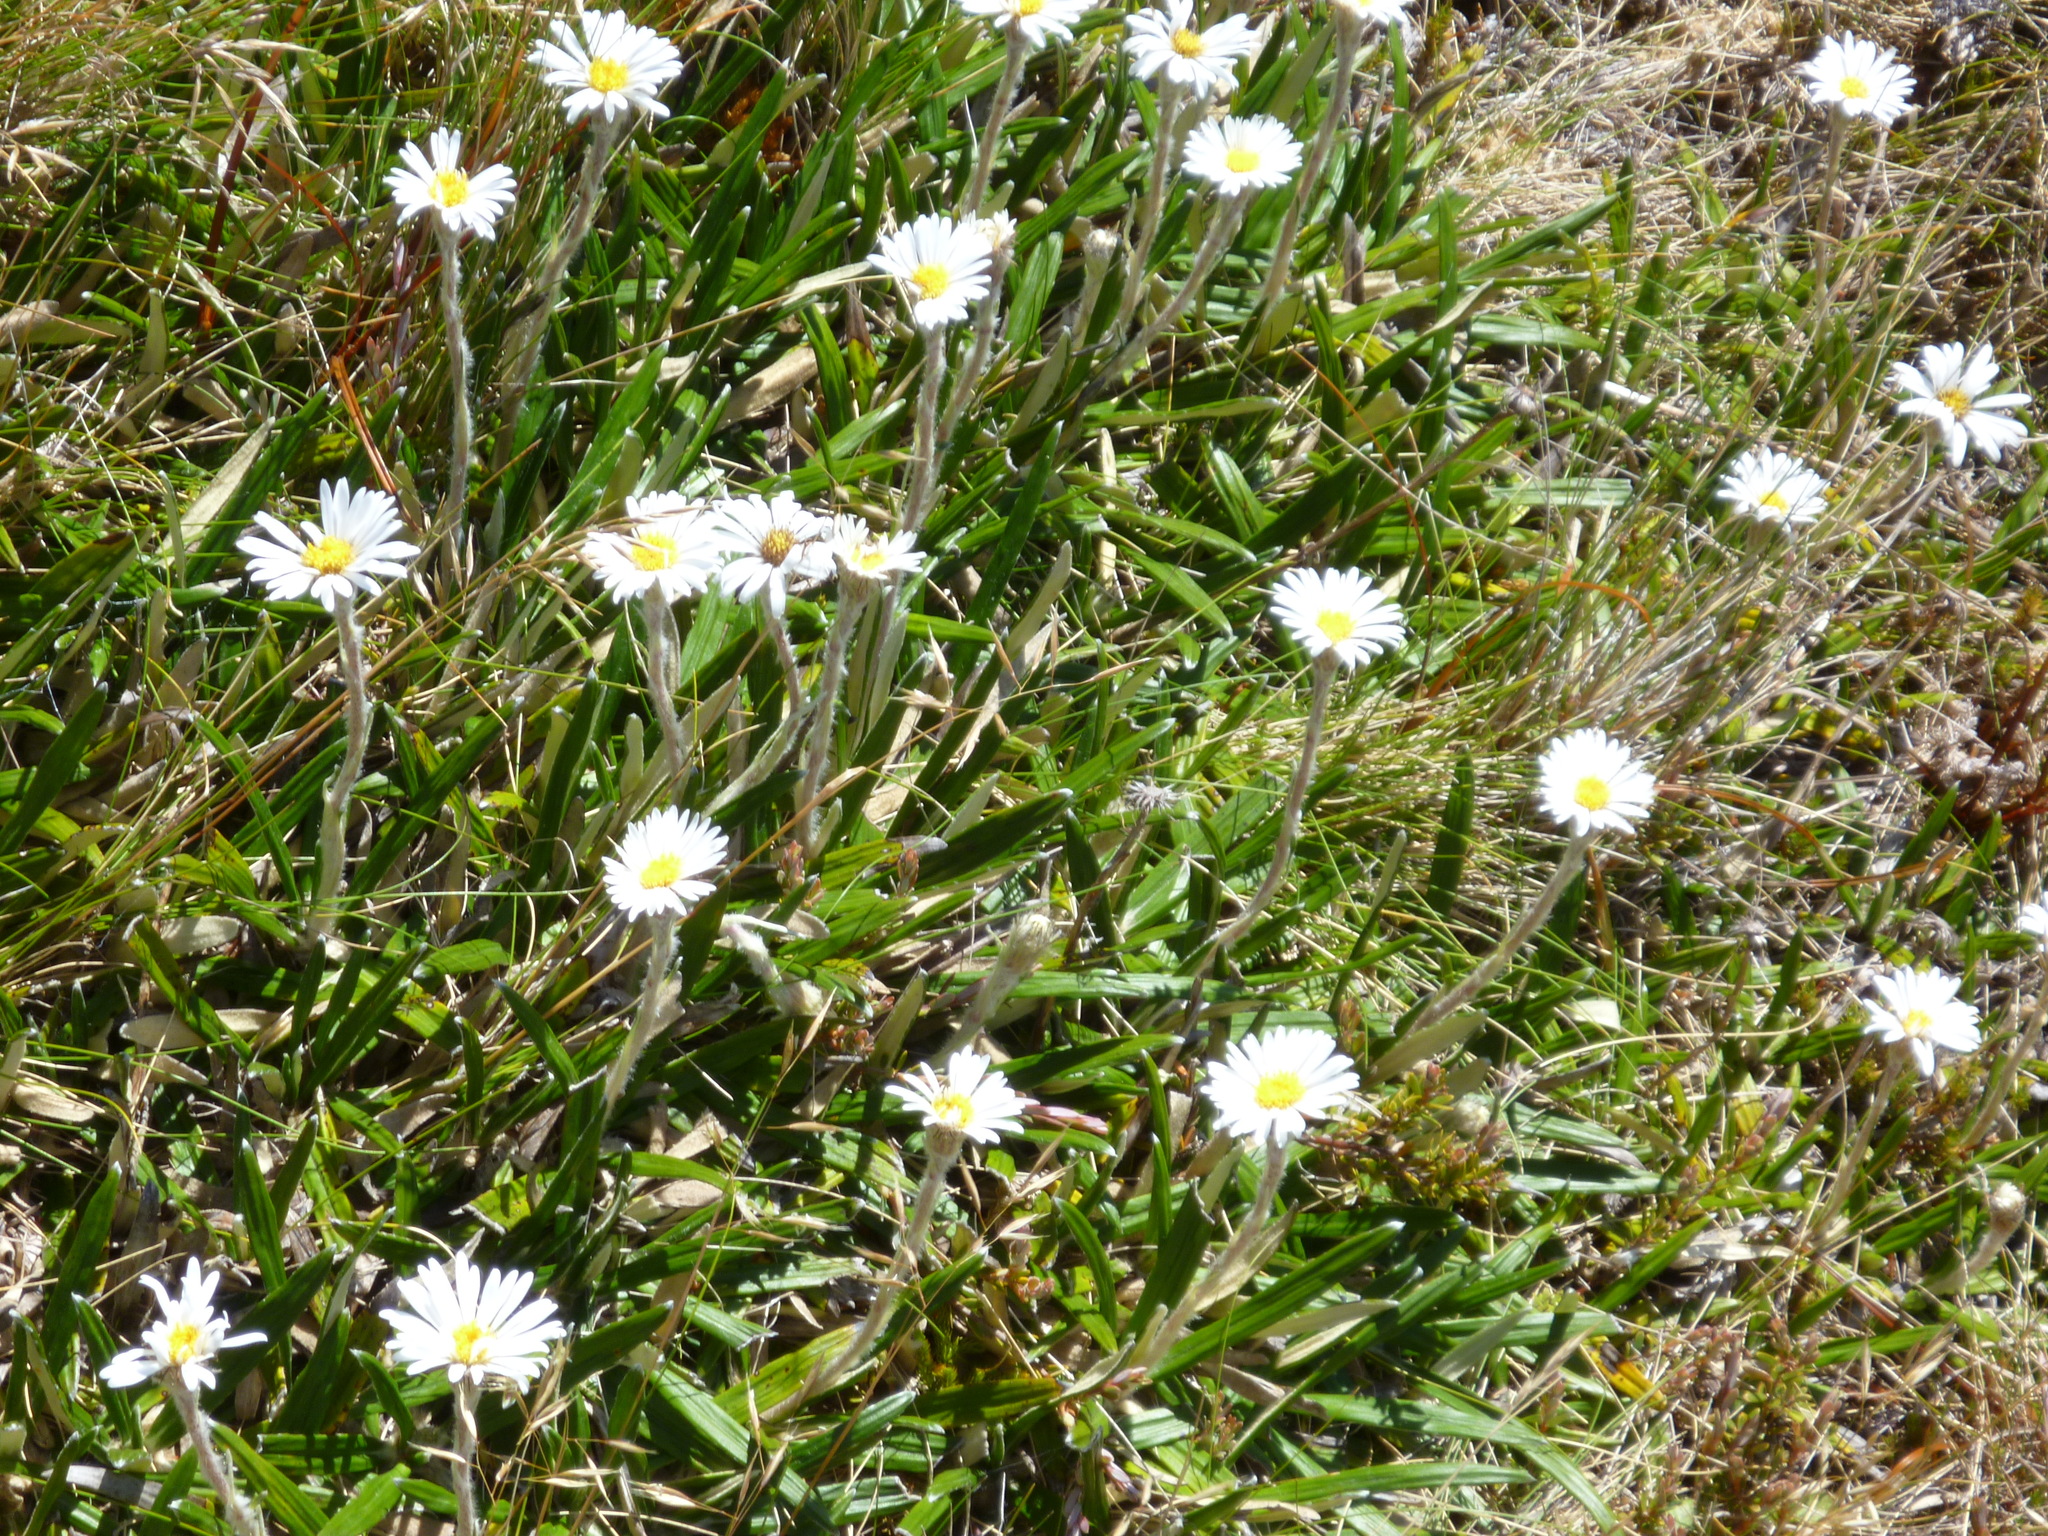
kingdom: Plantae
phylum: Tracheophyta
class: Magnoliopsida
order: Asterales
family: Asteraceae
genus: Celmisia
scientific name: Celmisia spectabilis
